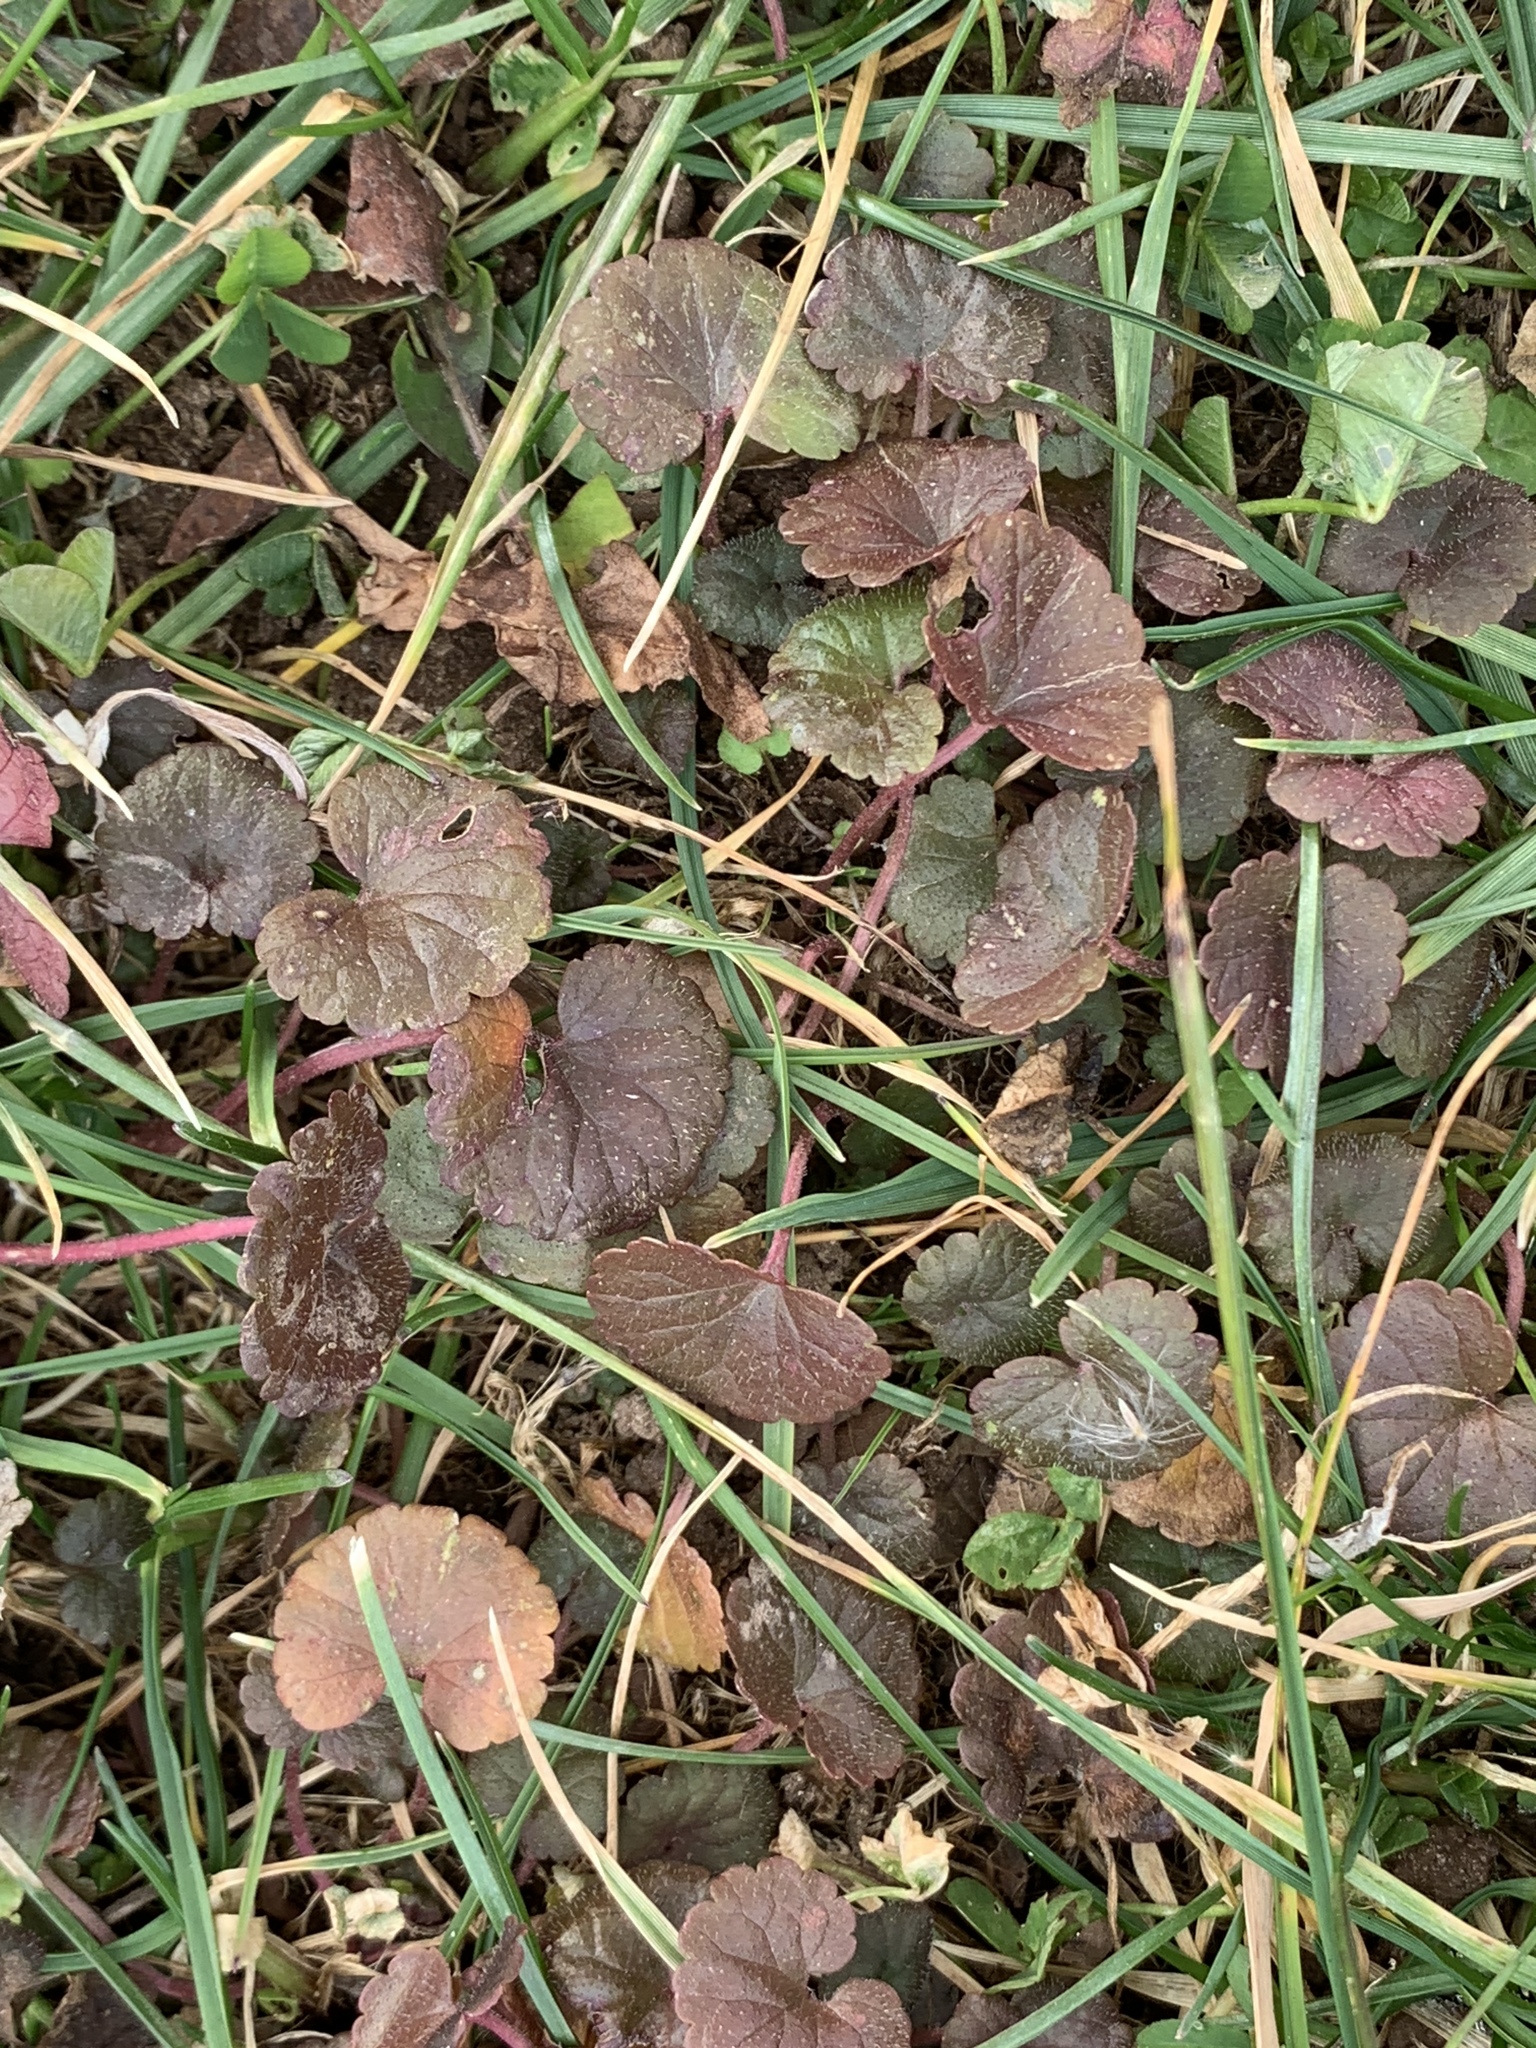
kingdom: Plantae
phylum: Tracheophyta
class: Magnoliopsida
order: Lamiales
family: Lamiaceae
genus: Glechoma
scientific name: Glechoma hederacea
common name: Ground ivy
